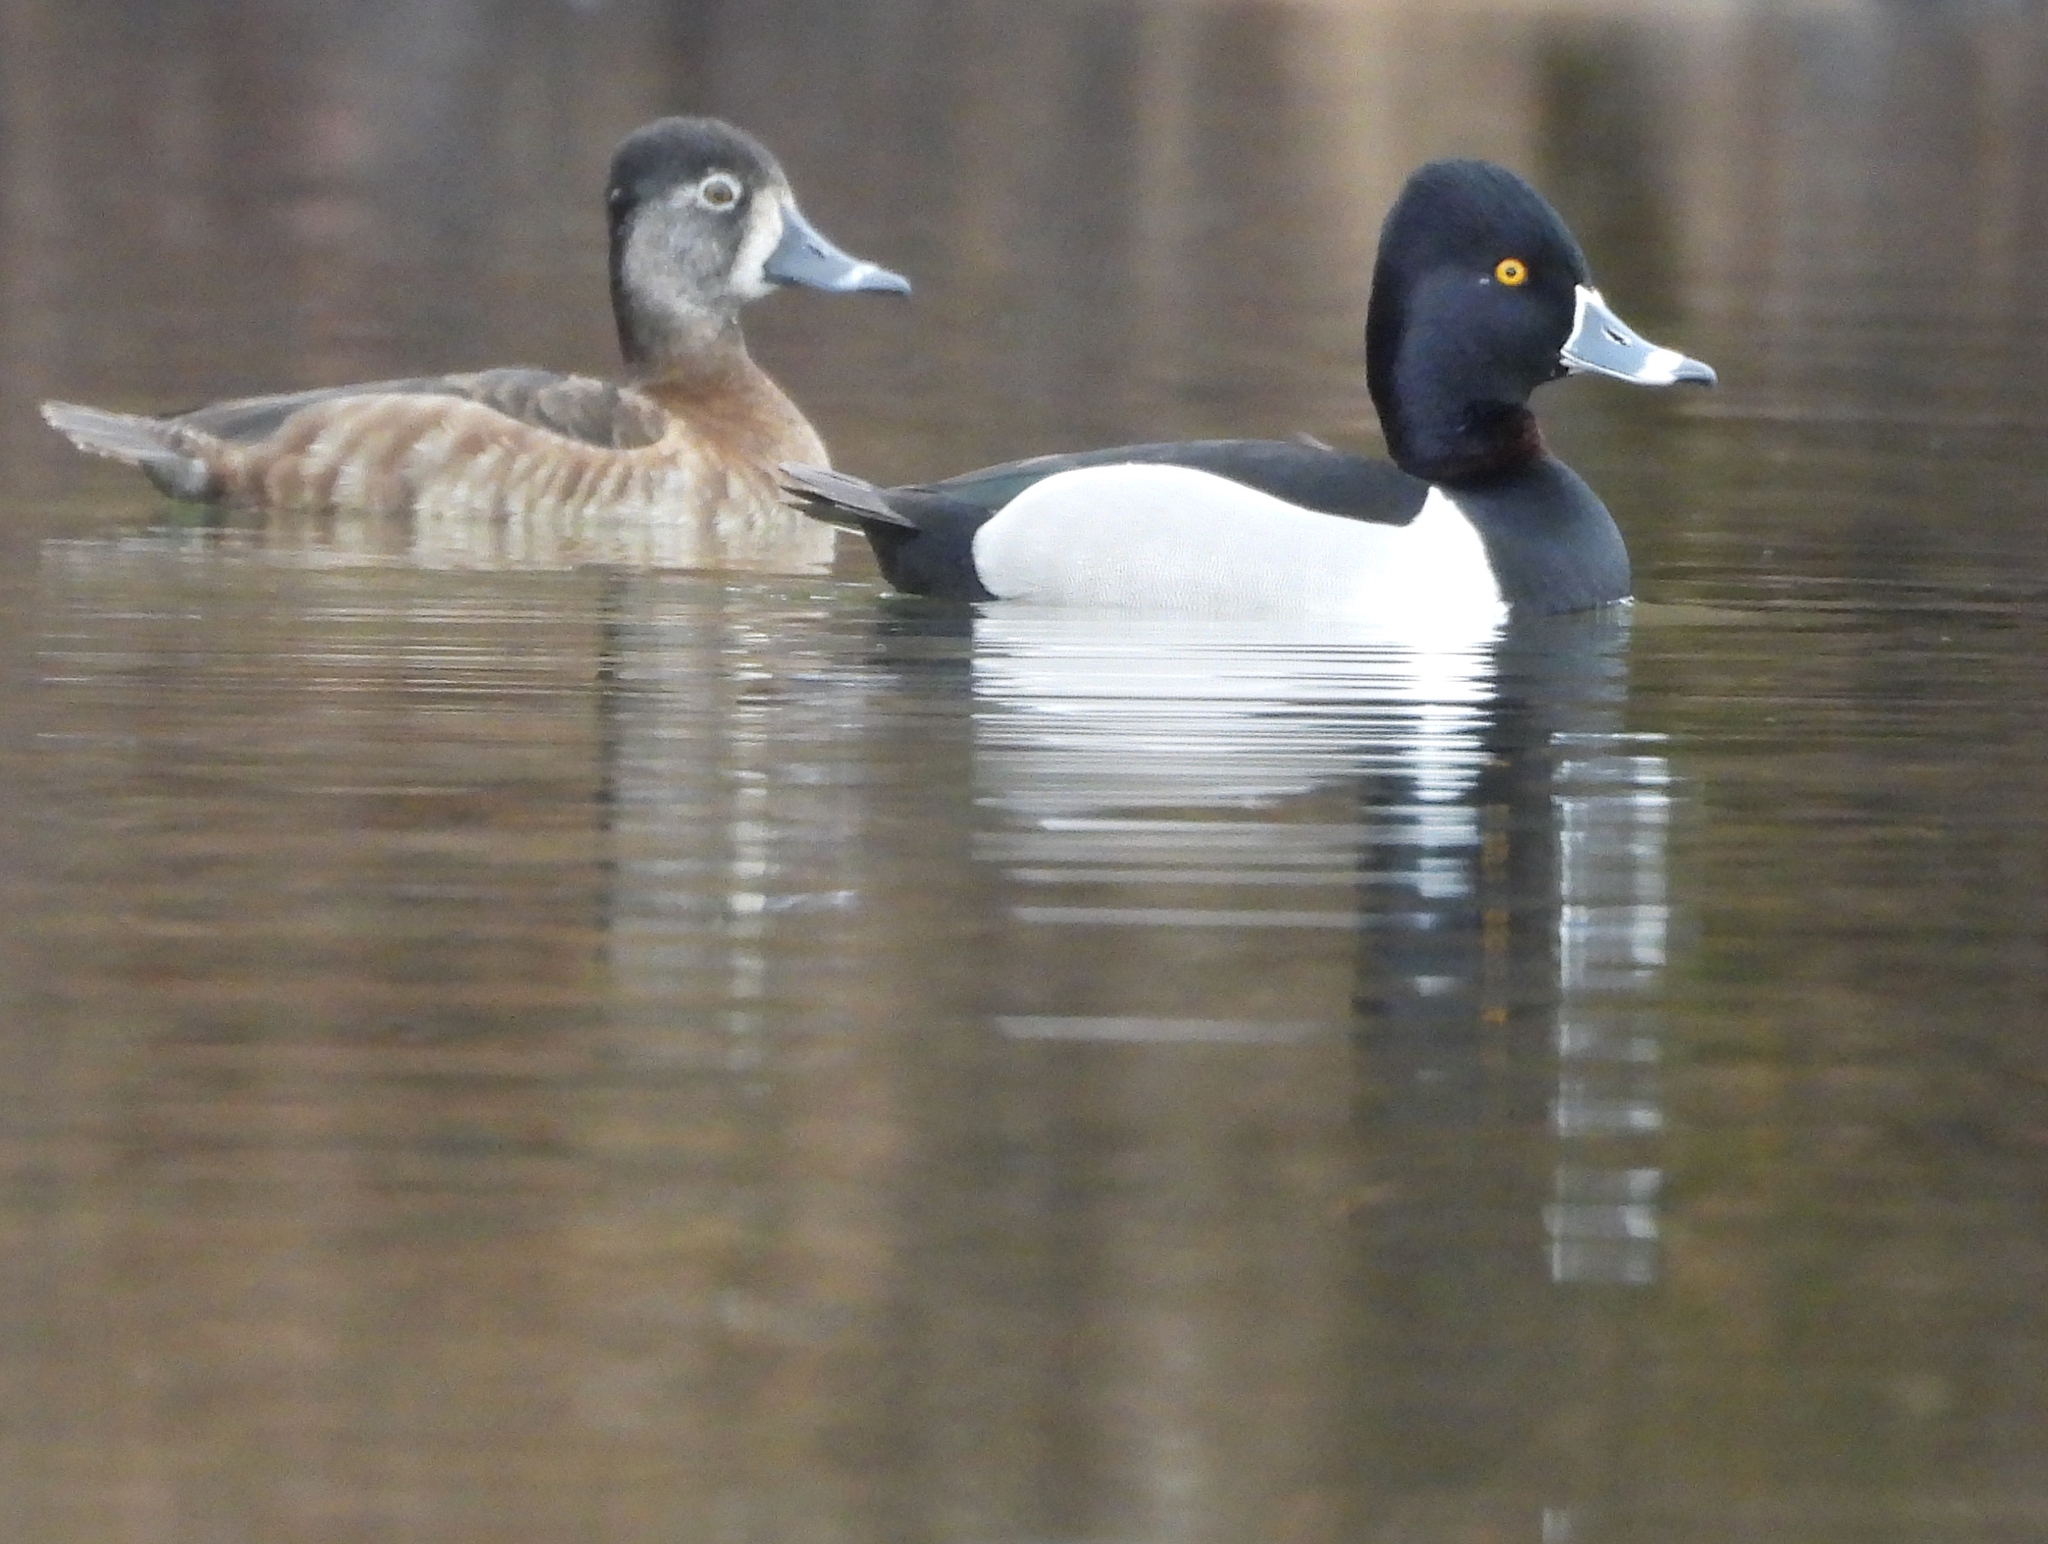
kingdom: Animalia
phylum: Chordata
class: Aves
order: Anseriformes
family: Anatidae
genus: Aythya
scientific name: Aythya collaris
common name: Ring-necked duck
